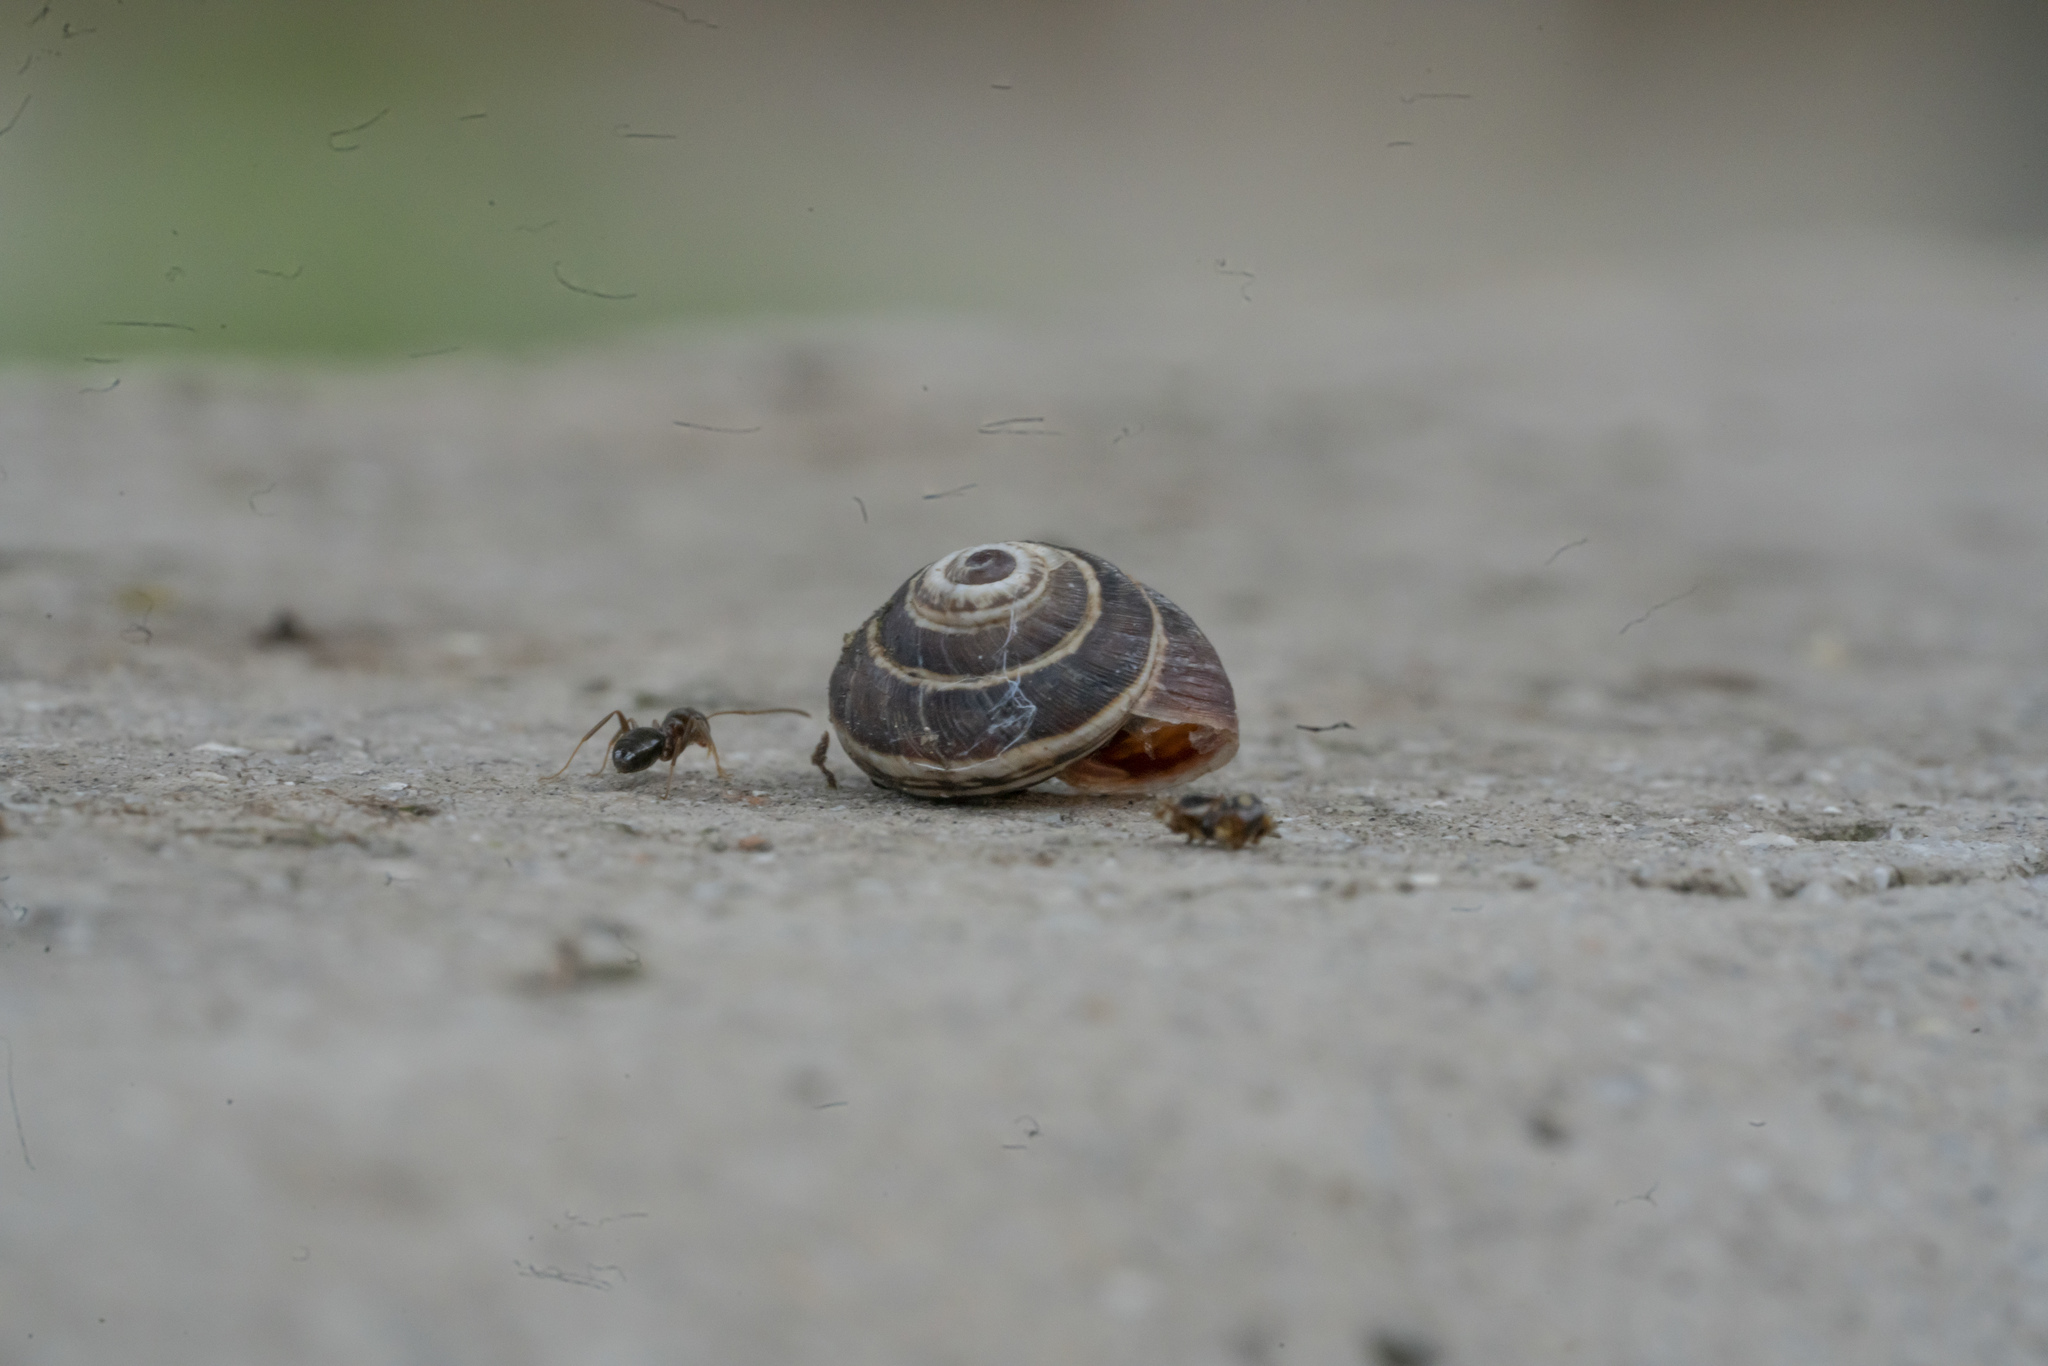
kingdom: Animalia
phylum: Mollusca
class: Gastropoda
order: Stylommatophora
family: Geomitridae
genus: Cernuella
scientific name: Cernuella virgata
